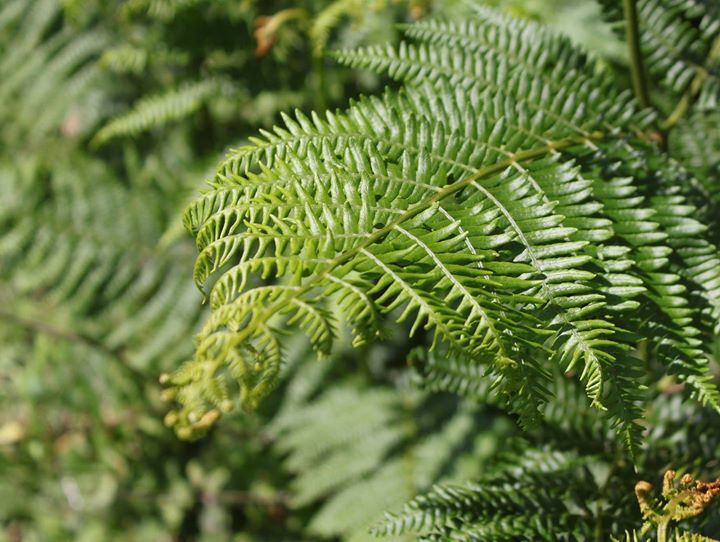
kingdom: Plantae
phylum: Tracheophyta
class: Polypodiopsida
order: Polypodiales
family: Dennstaedtiaceae
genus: Pteridium
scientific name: Pteridium aquilinum
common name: Bracken
